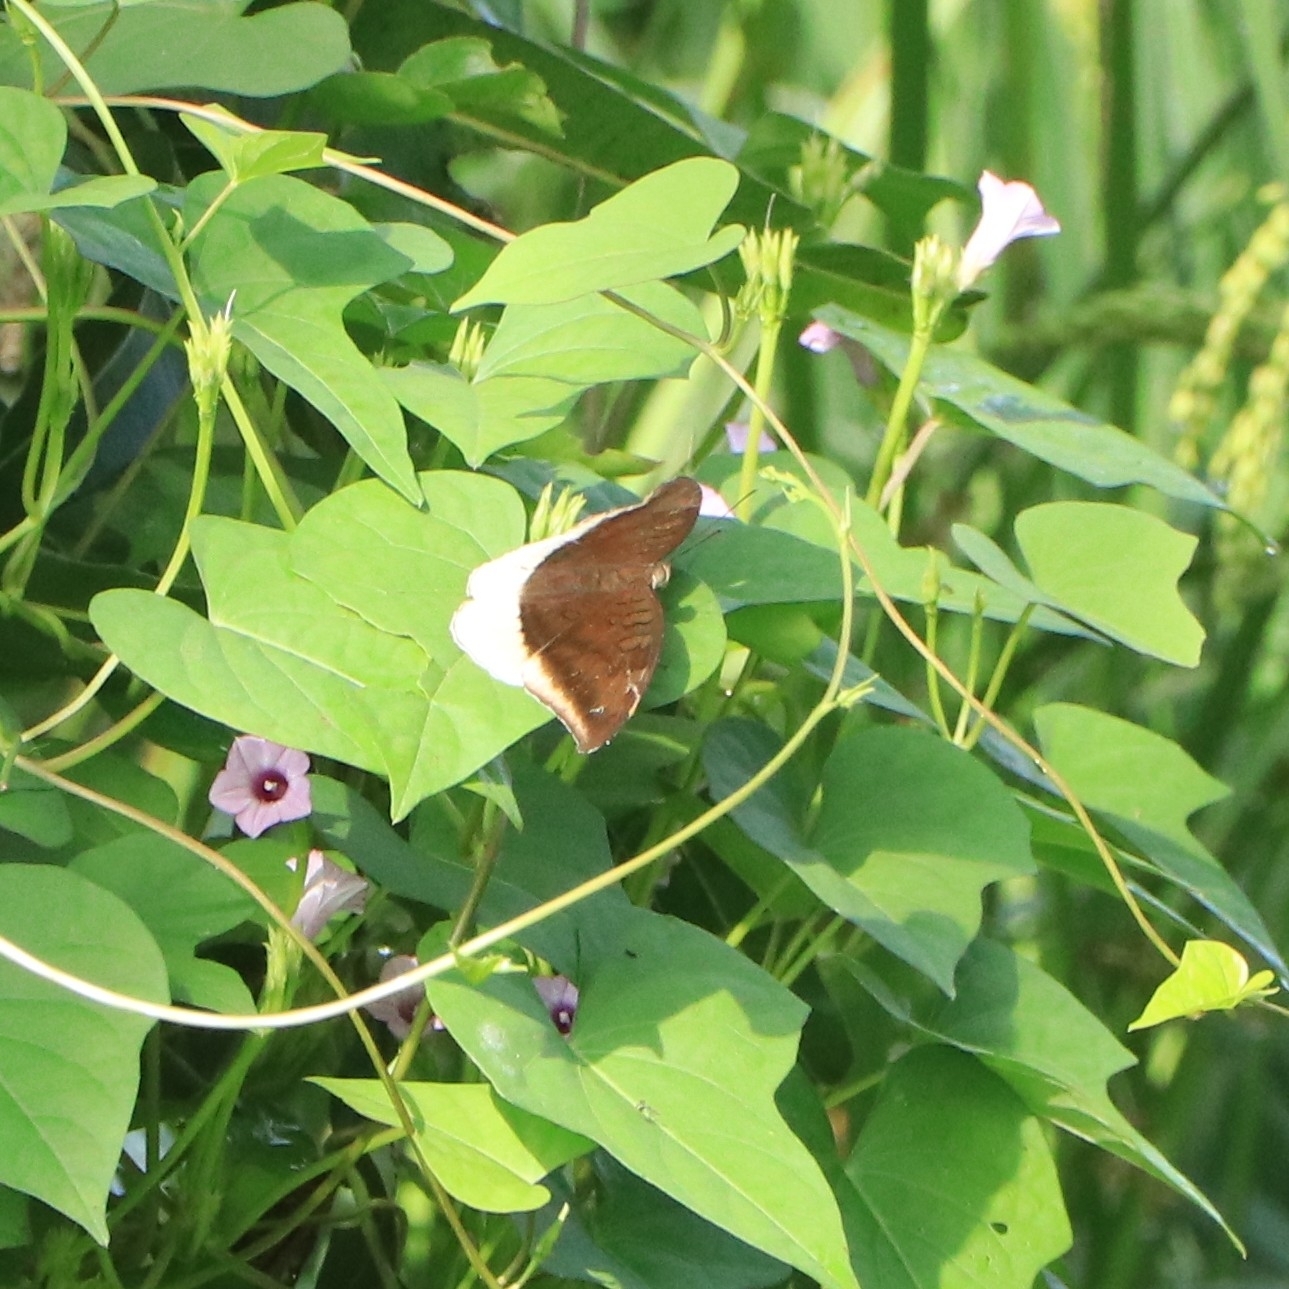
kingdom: Animalia
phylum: Arthropoda
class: Insecta
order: Lepidoptera
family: Nymphalidae
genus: Tanaecia
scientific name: Tanaecia lepidea
